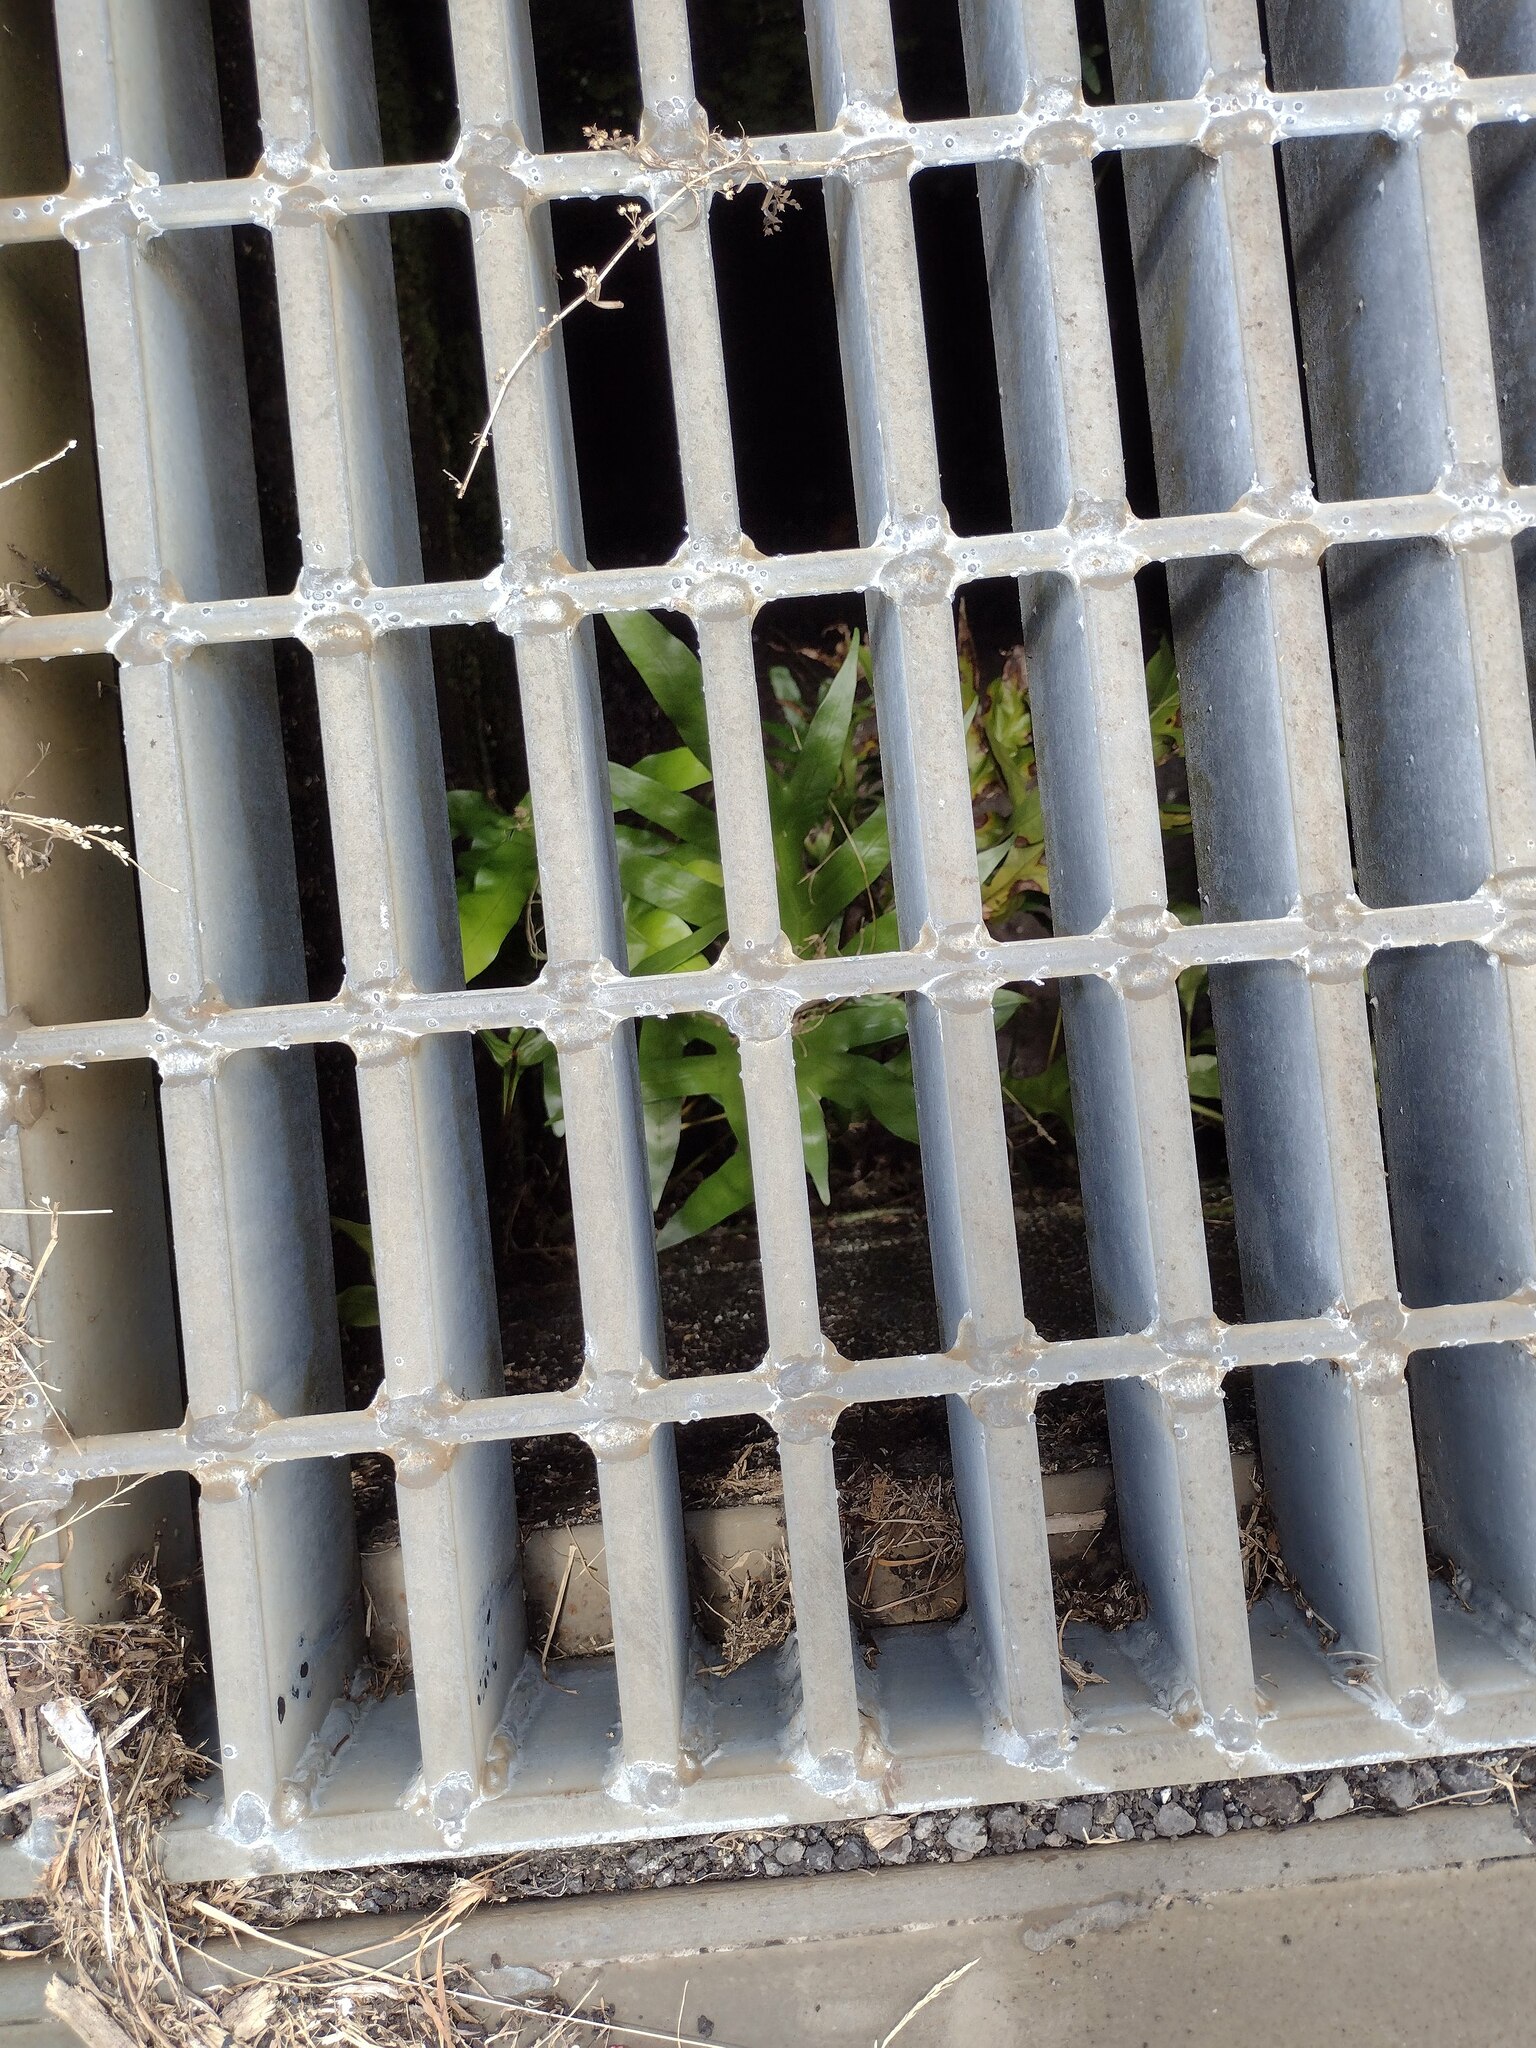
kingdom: Plantae
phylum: Tracheophyta
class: Polypodiopsida
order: Polypodiales
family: Polypodiaceae
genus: Microsorum
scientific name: Microsorum grossum
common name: Musk fern
